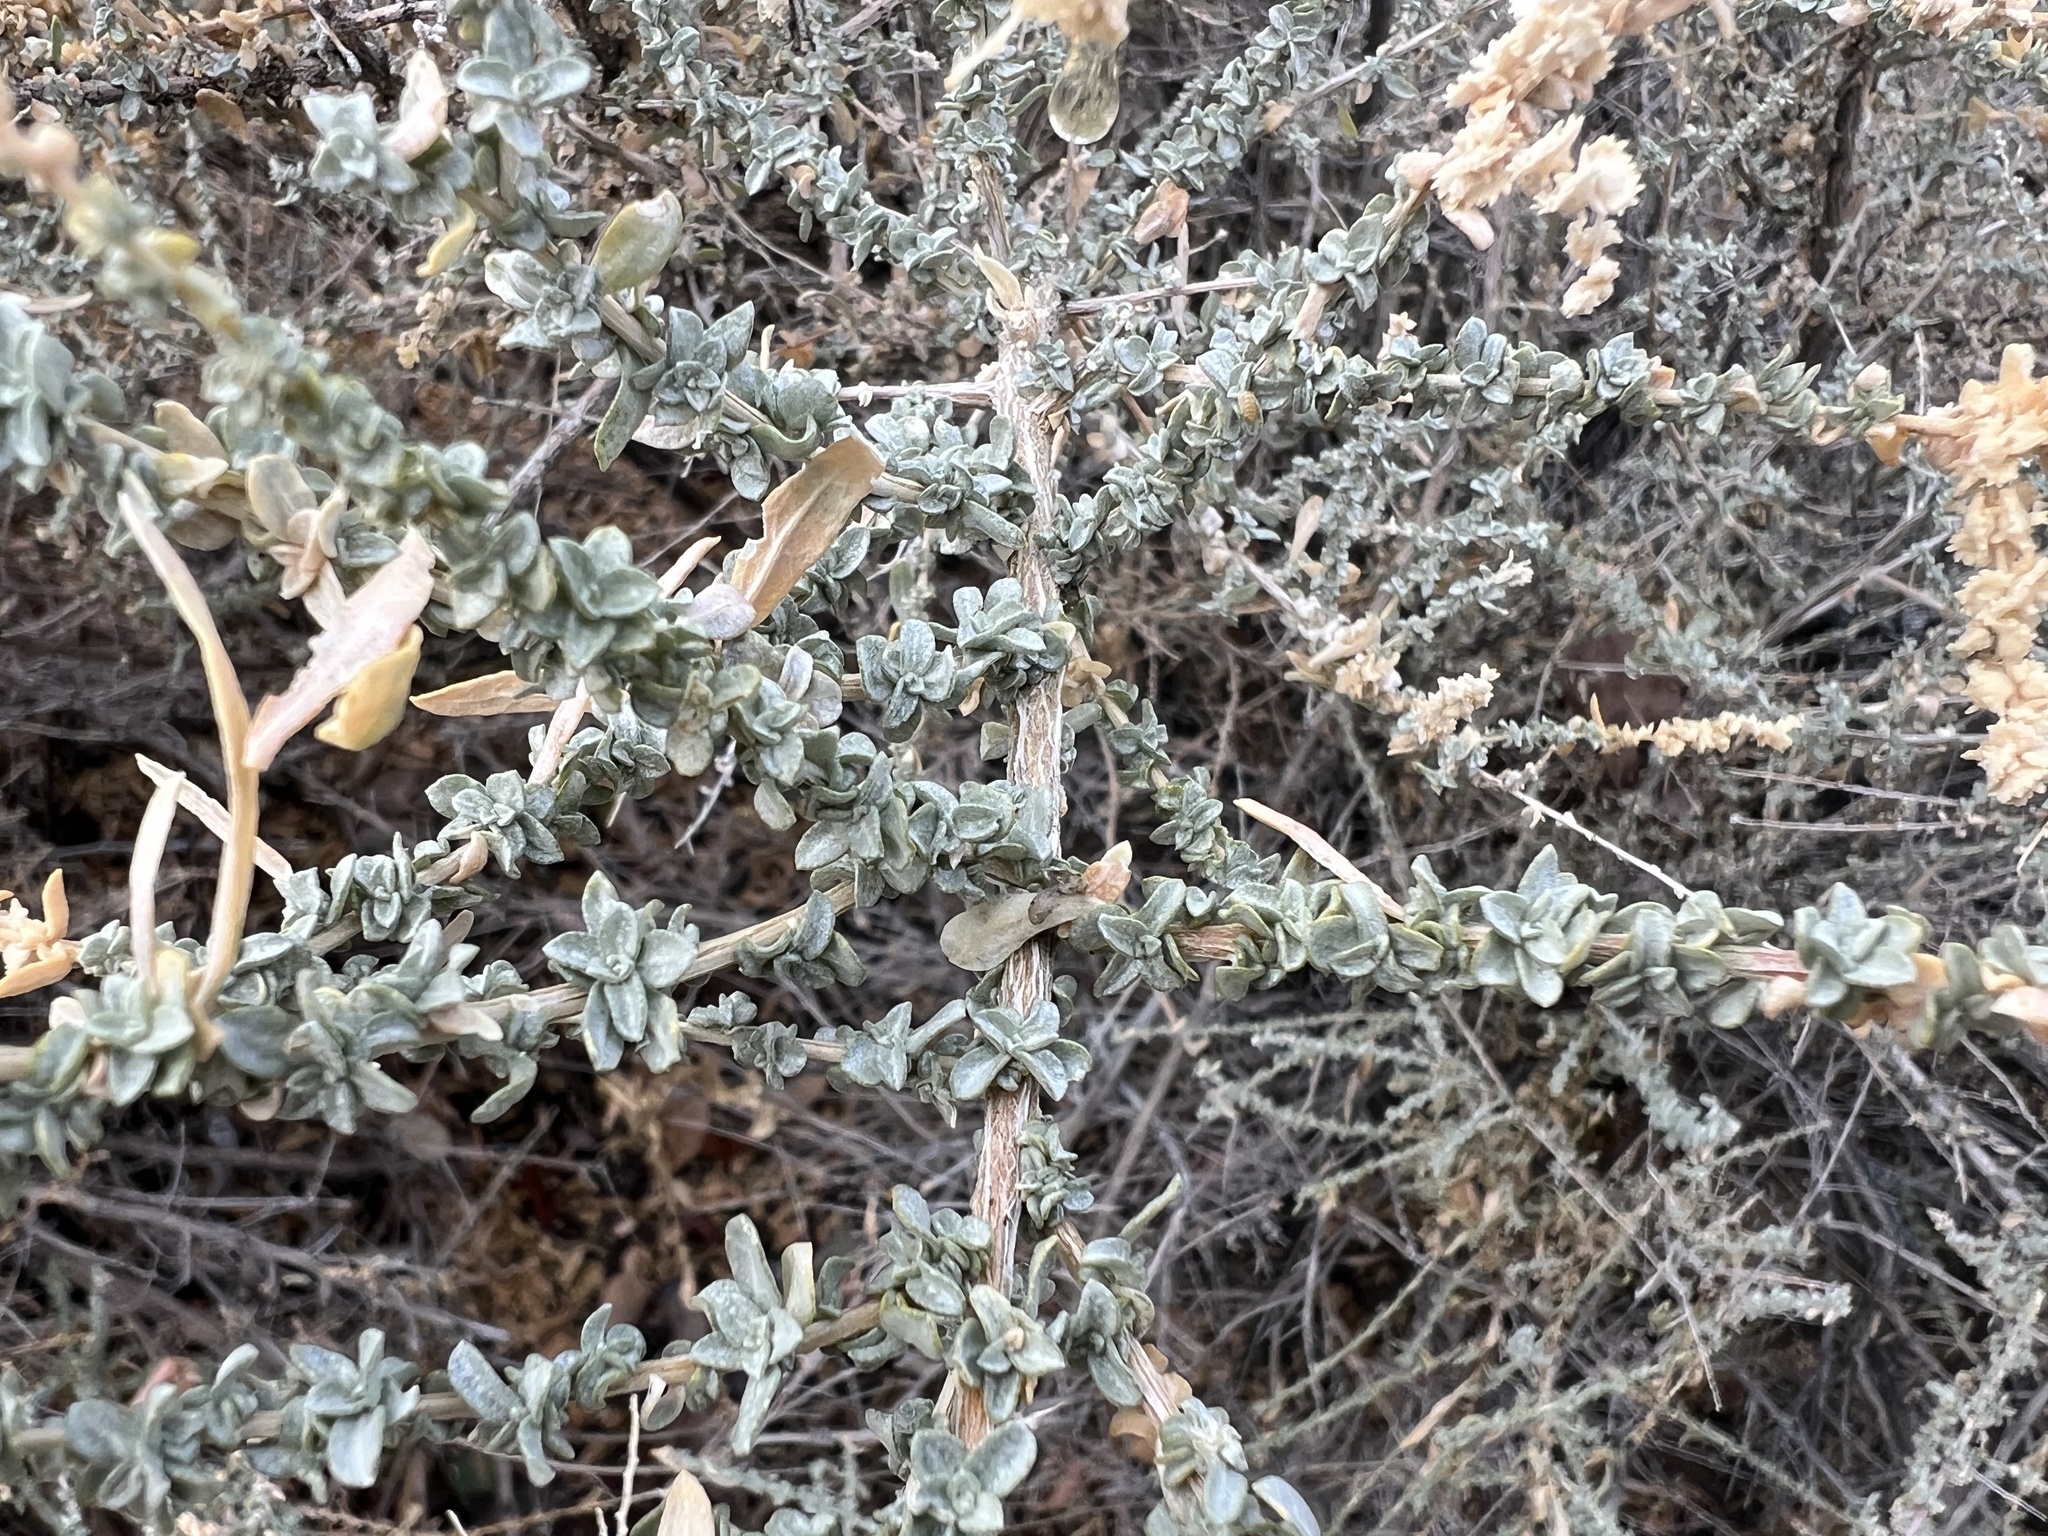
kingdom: Plantae
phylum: Tracheophyta
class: Magnoliopsida
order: Caryophyllales
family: Amaranthaceae
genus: Atriplex
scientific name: Atriplex polycarpa
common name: Desert saltbush
